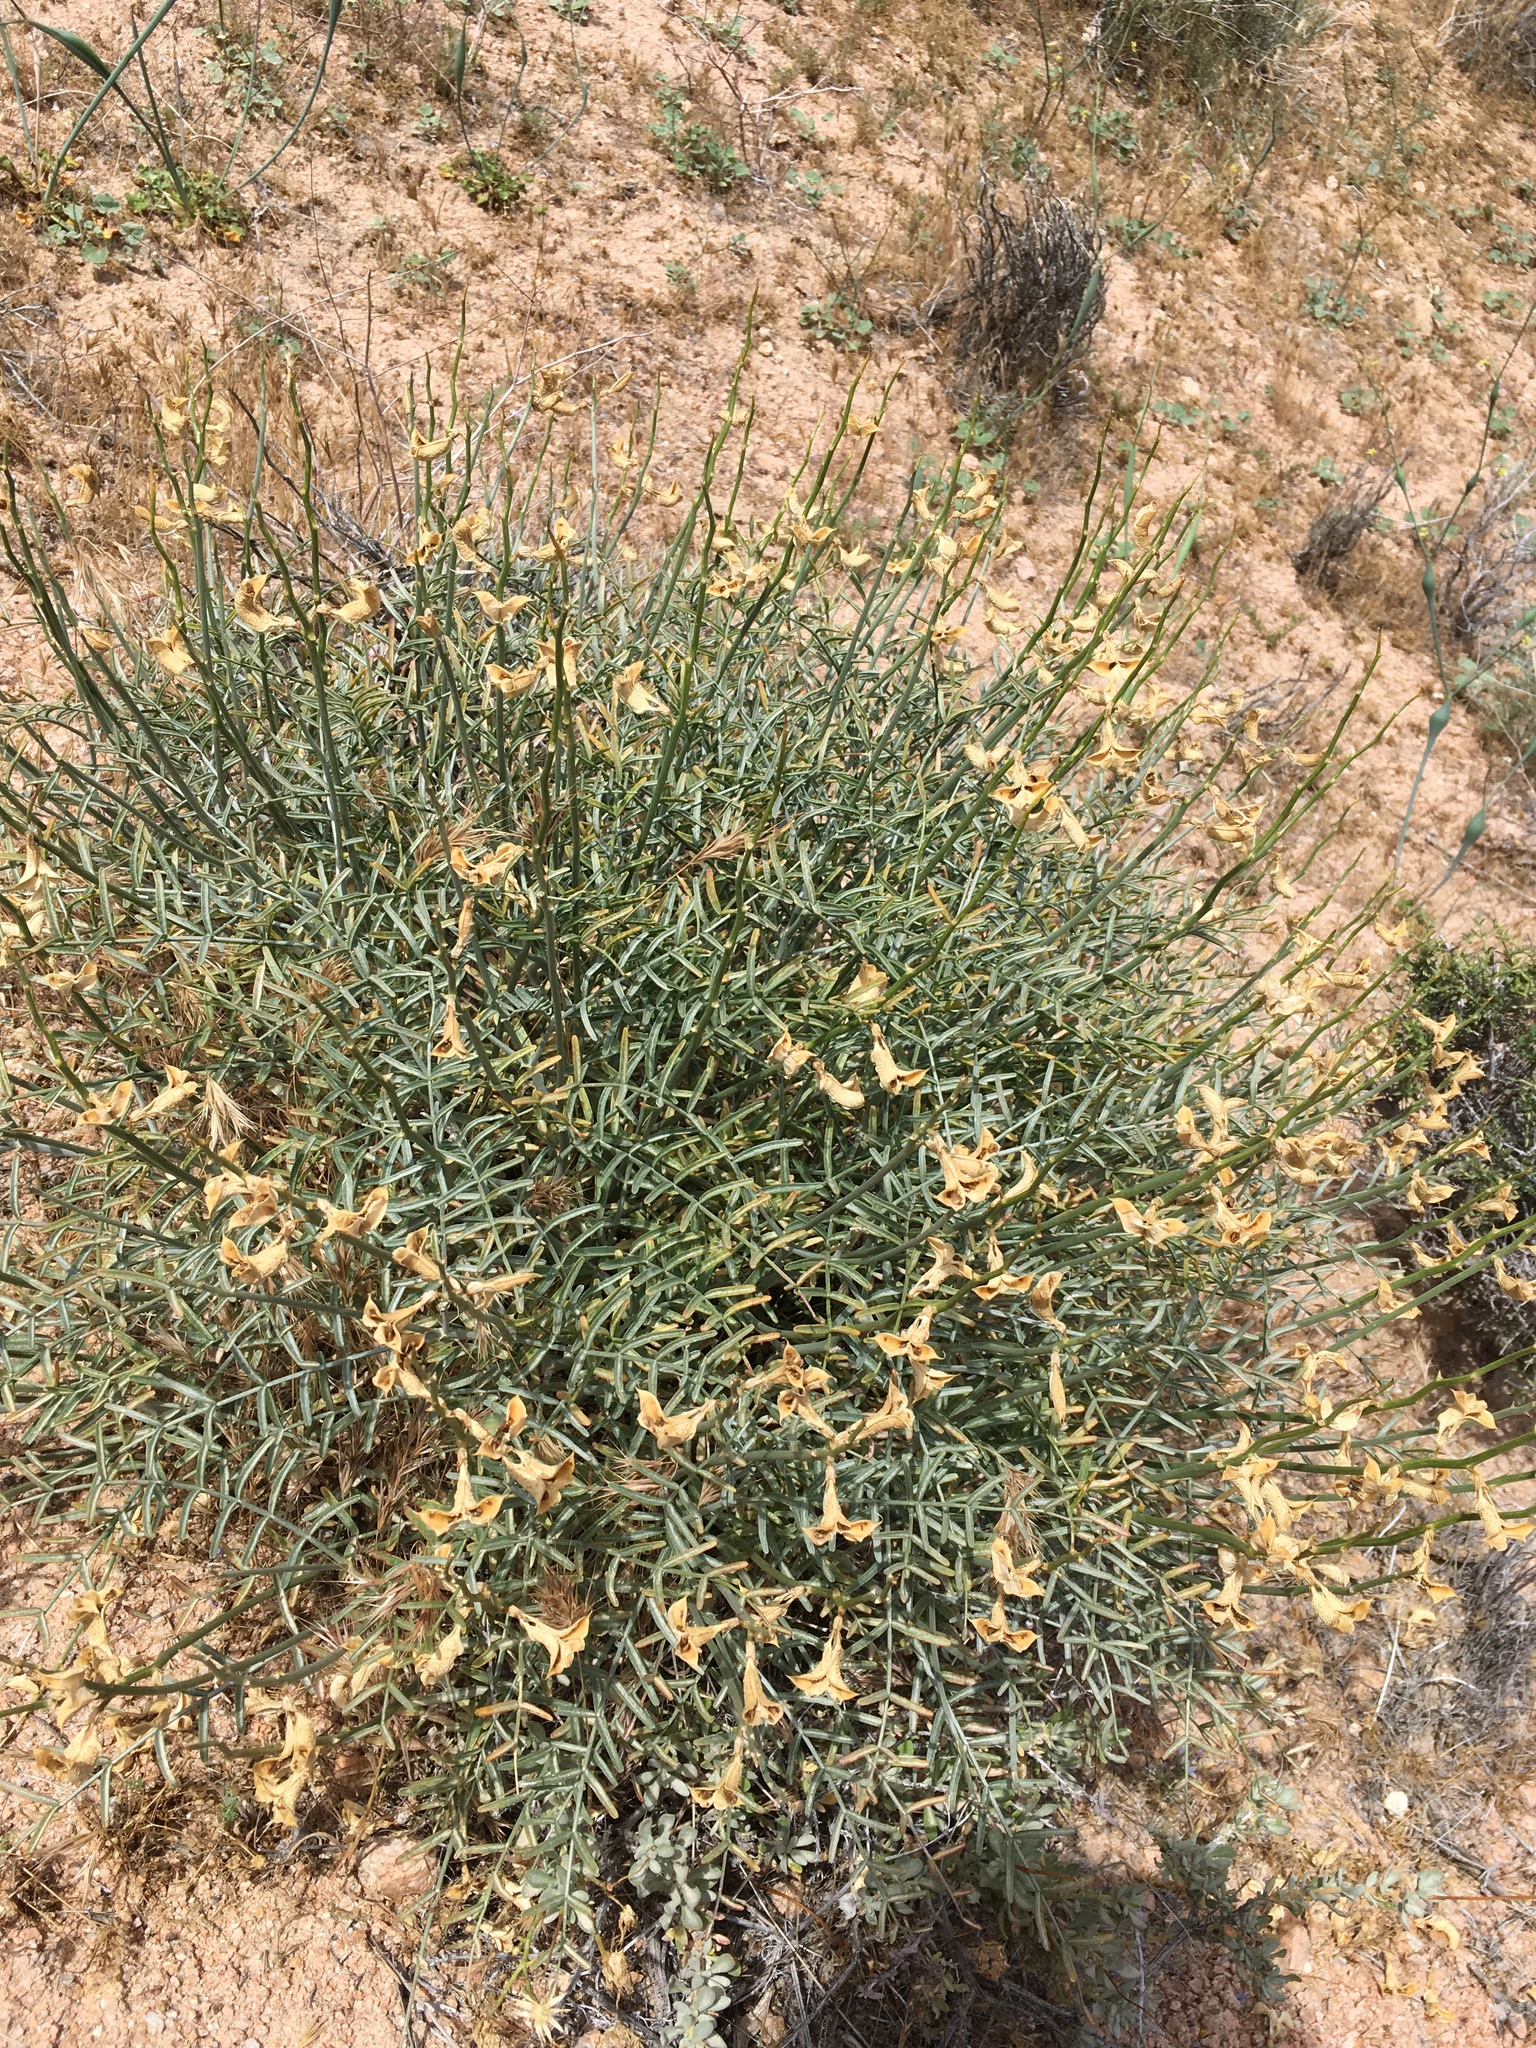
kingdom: Plantae
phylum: Tracheophyta
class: Magnoliopsida
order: Fabales
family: Fabaceae
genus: Astragalus
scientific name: Astragalus pachypus
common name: Thick-pod milkvetch
